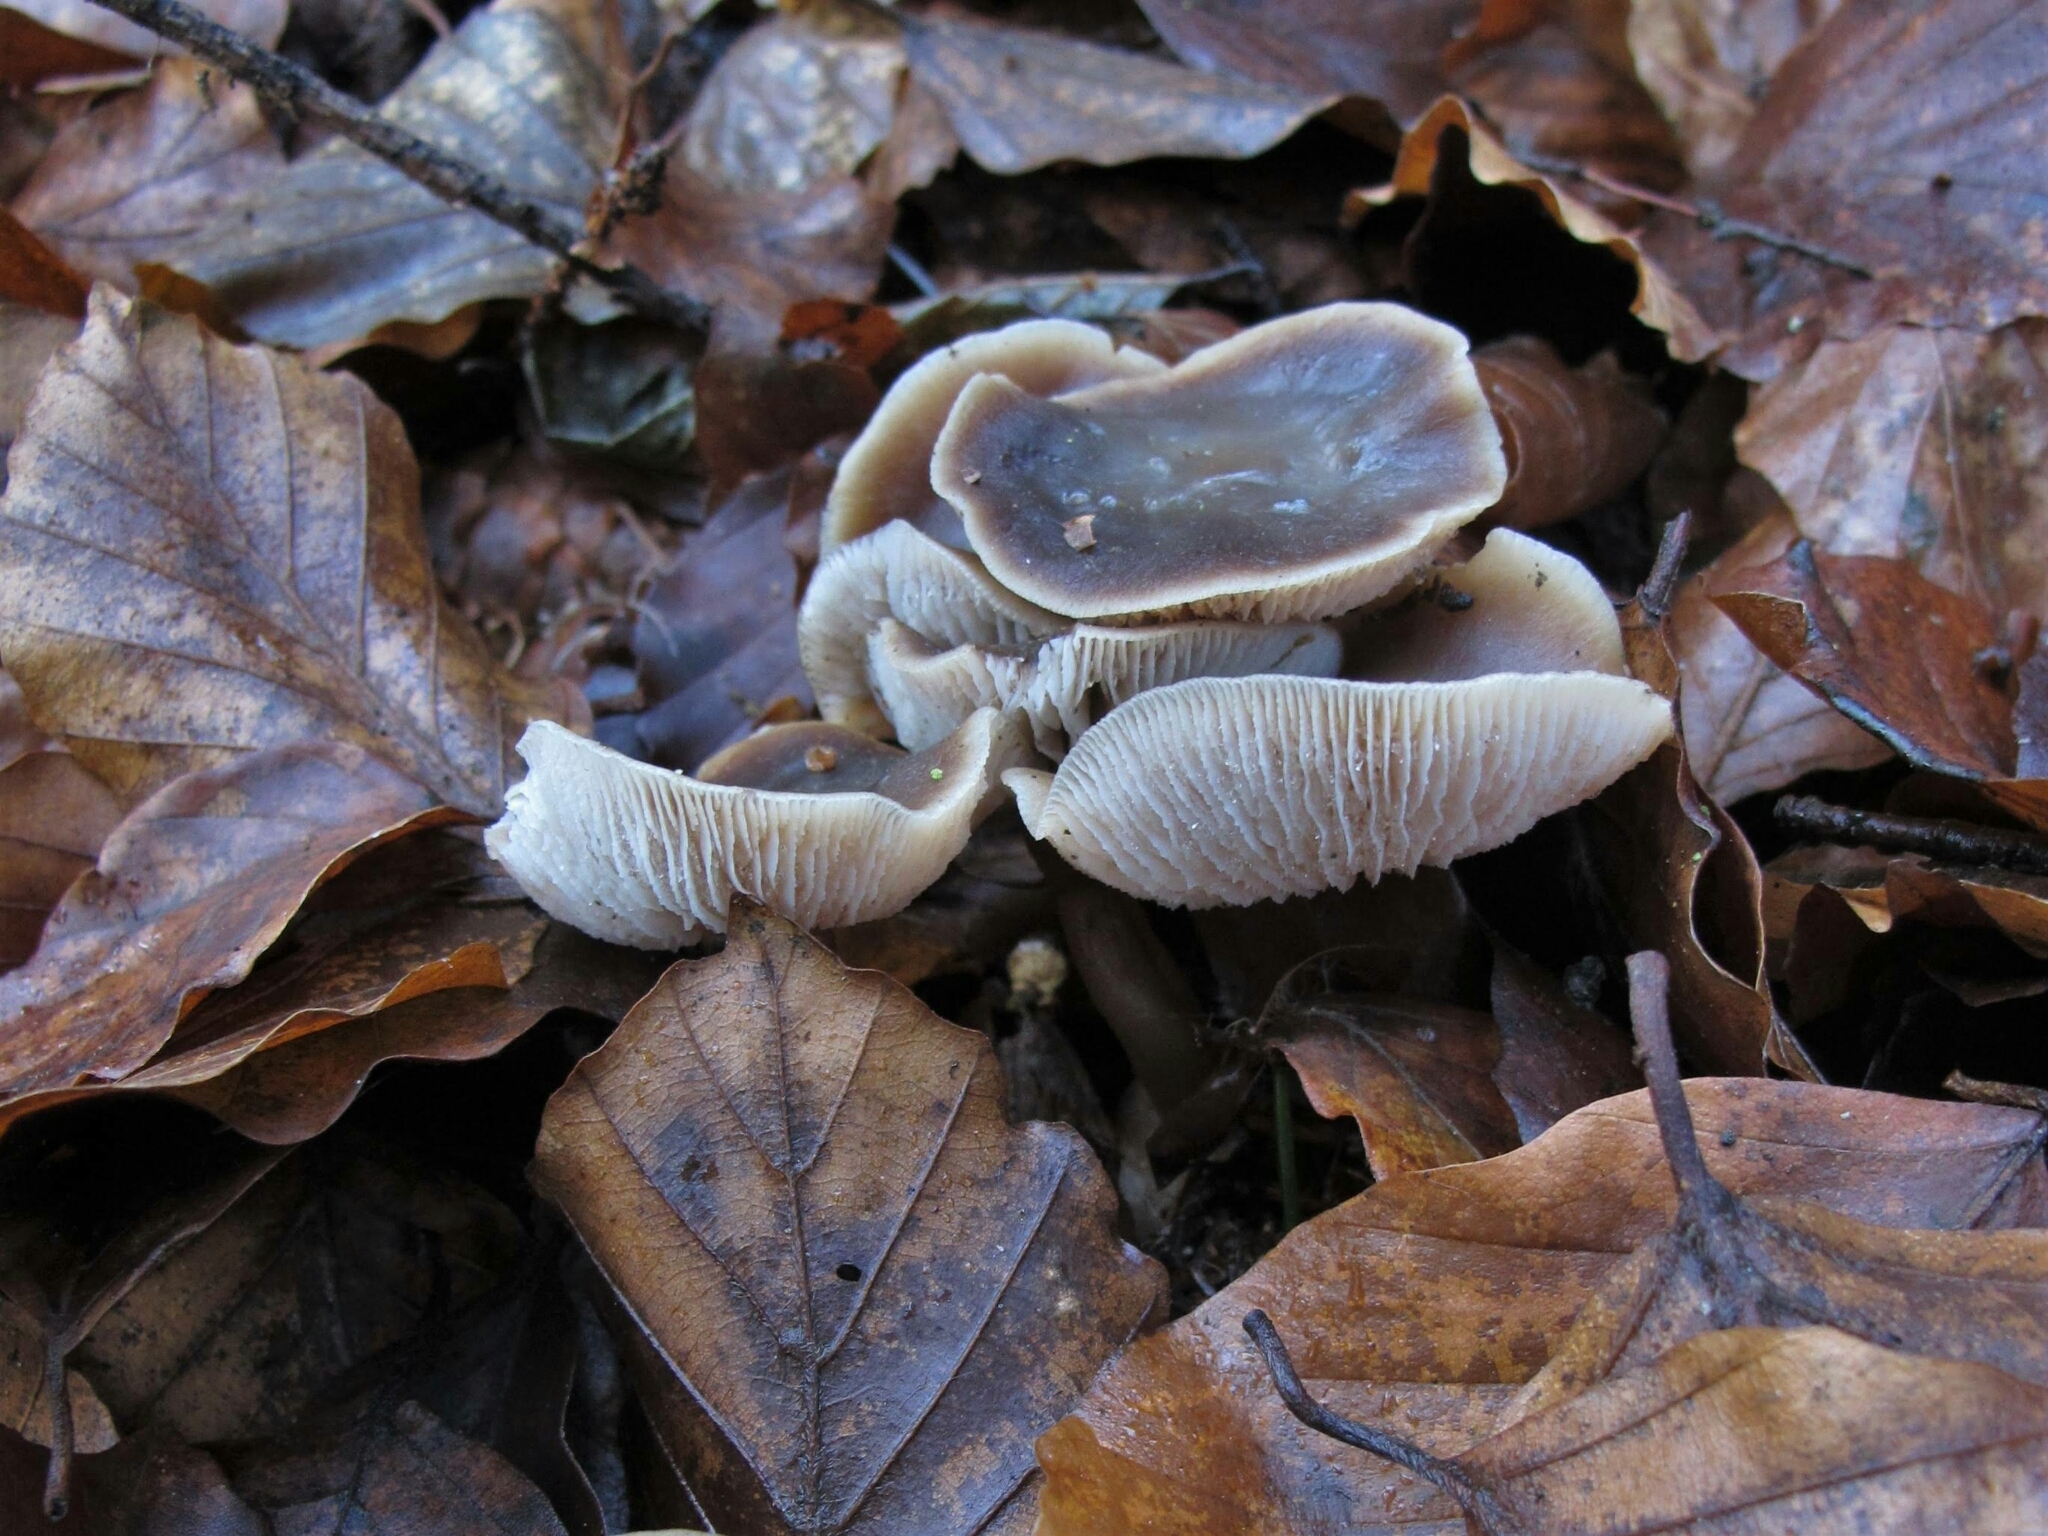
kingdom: Fungi
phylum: Basidiomycota
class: Agaricomycetes
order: Agaricales
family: Omphalotaceae
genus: Rhodocollybia
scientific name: Rhodocollybia butyracea
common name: Butter cap
